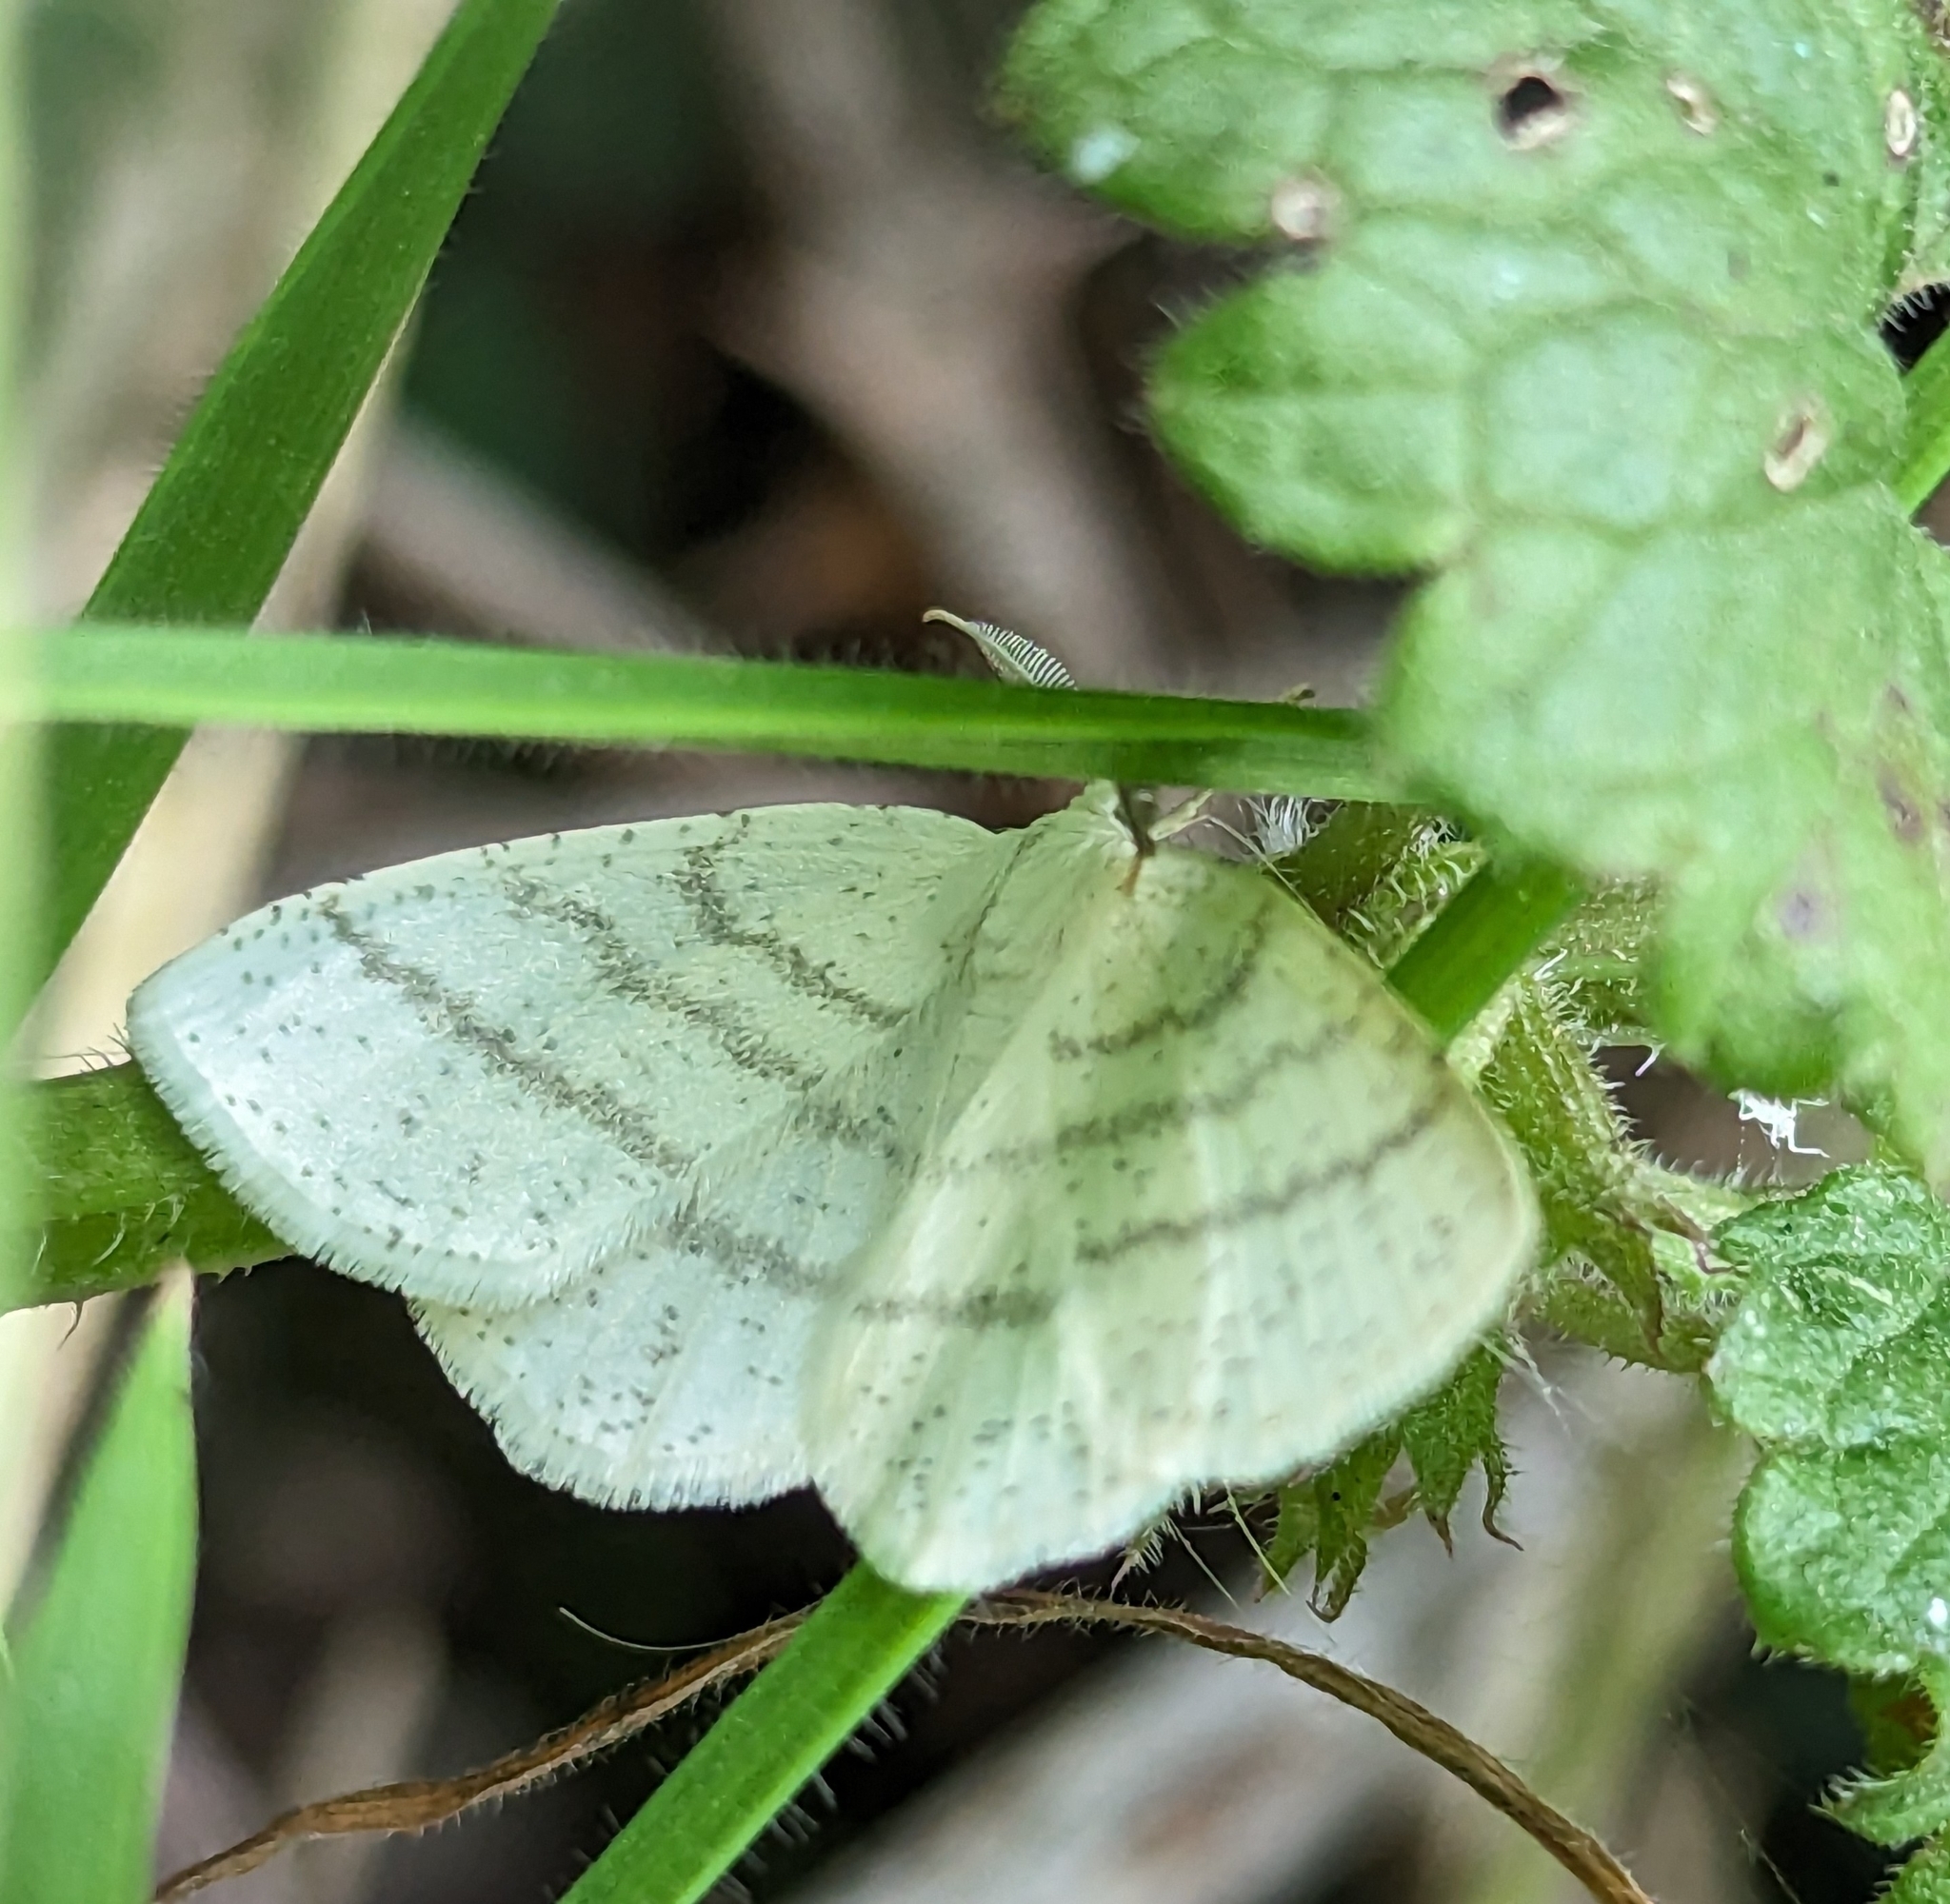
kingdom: Animalia
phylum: Arthropoda
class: Insecta
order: Lepidoptera
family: Geometridae
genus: Cabera
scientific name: Cabera pusaria
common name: Common white wave
